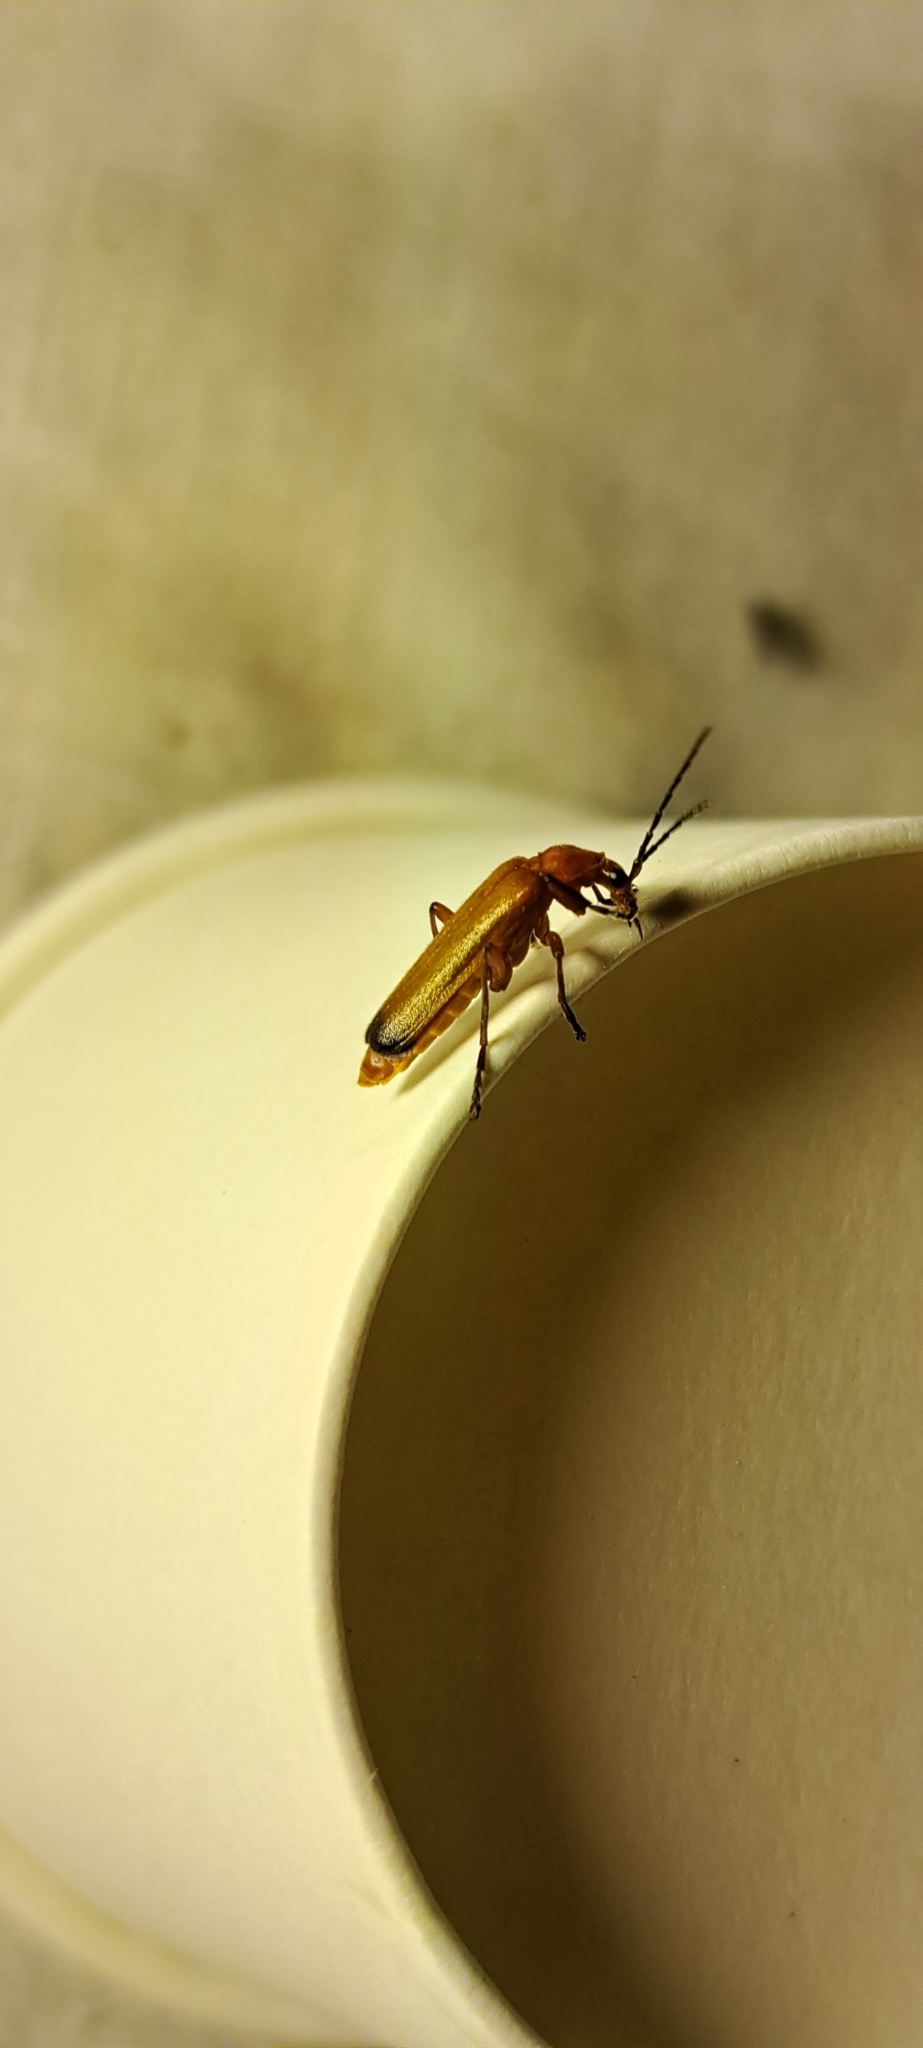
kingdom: Animalia
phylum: Arthropoda
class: Insecta
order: Coleoptera
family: Cantharidae
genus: Rhagonycha
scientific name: Rhagonycha fulva
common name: Common red soldier beetle
